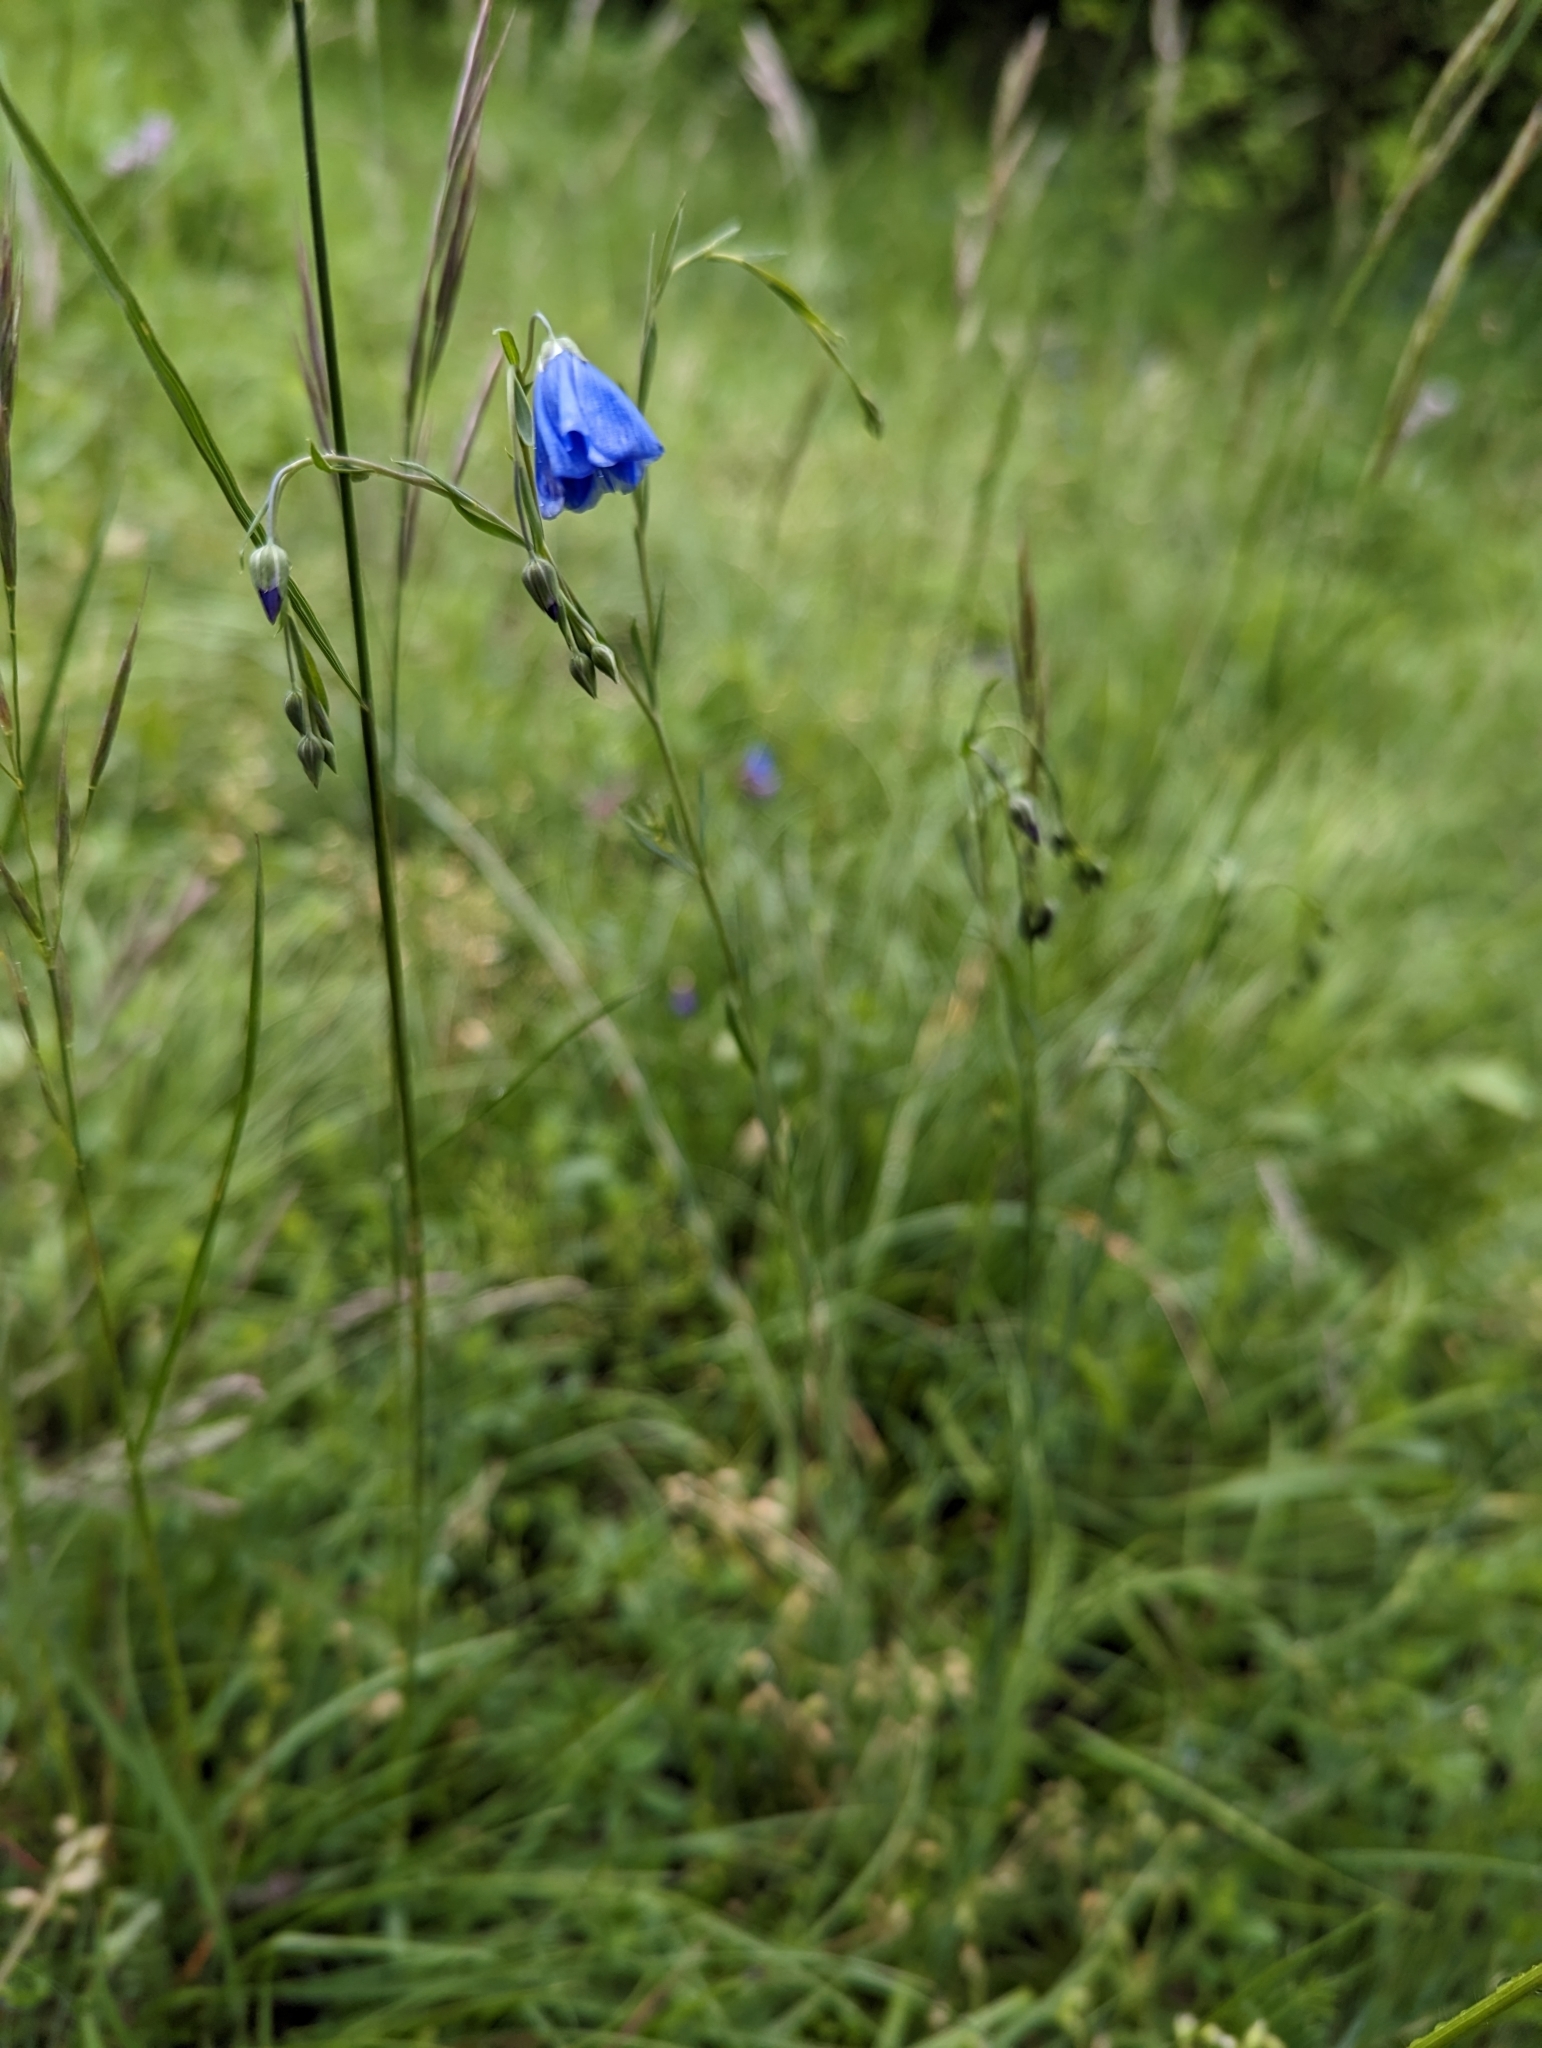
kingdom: Plantae
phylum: Tracheophyta
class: Magnoliopsida
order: Malpighiales
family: Linaceae
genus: Linum
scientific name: Linum austriacum
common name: Austrian flax
